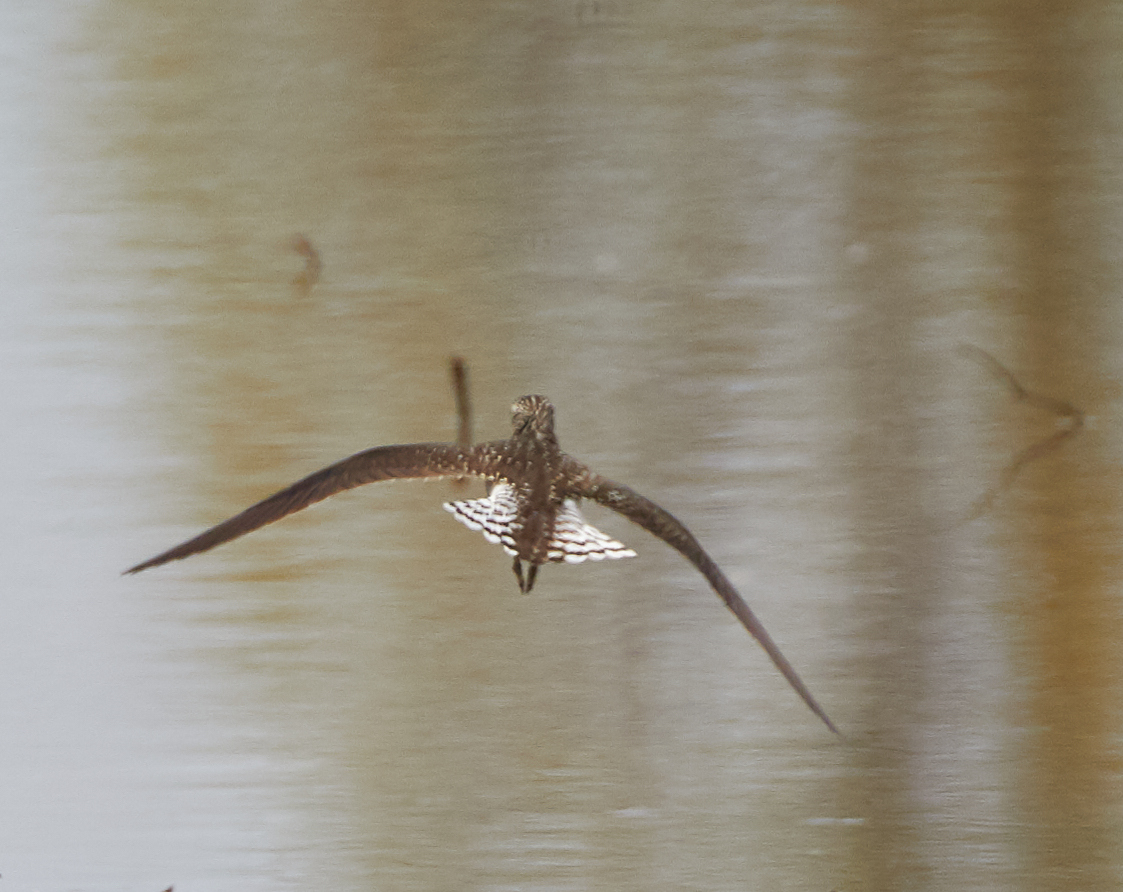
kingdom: Animalia
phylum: Chordata
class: Aves
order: Charadriiformes
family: Scolopacidae
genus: Tringa
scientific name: Tringa solitaria
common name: Solitary sandpiper
